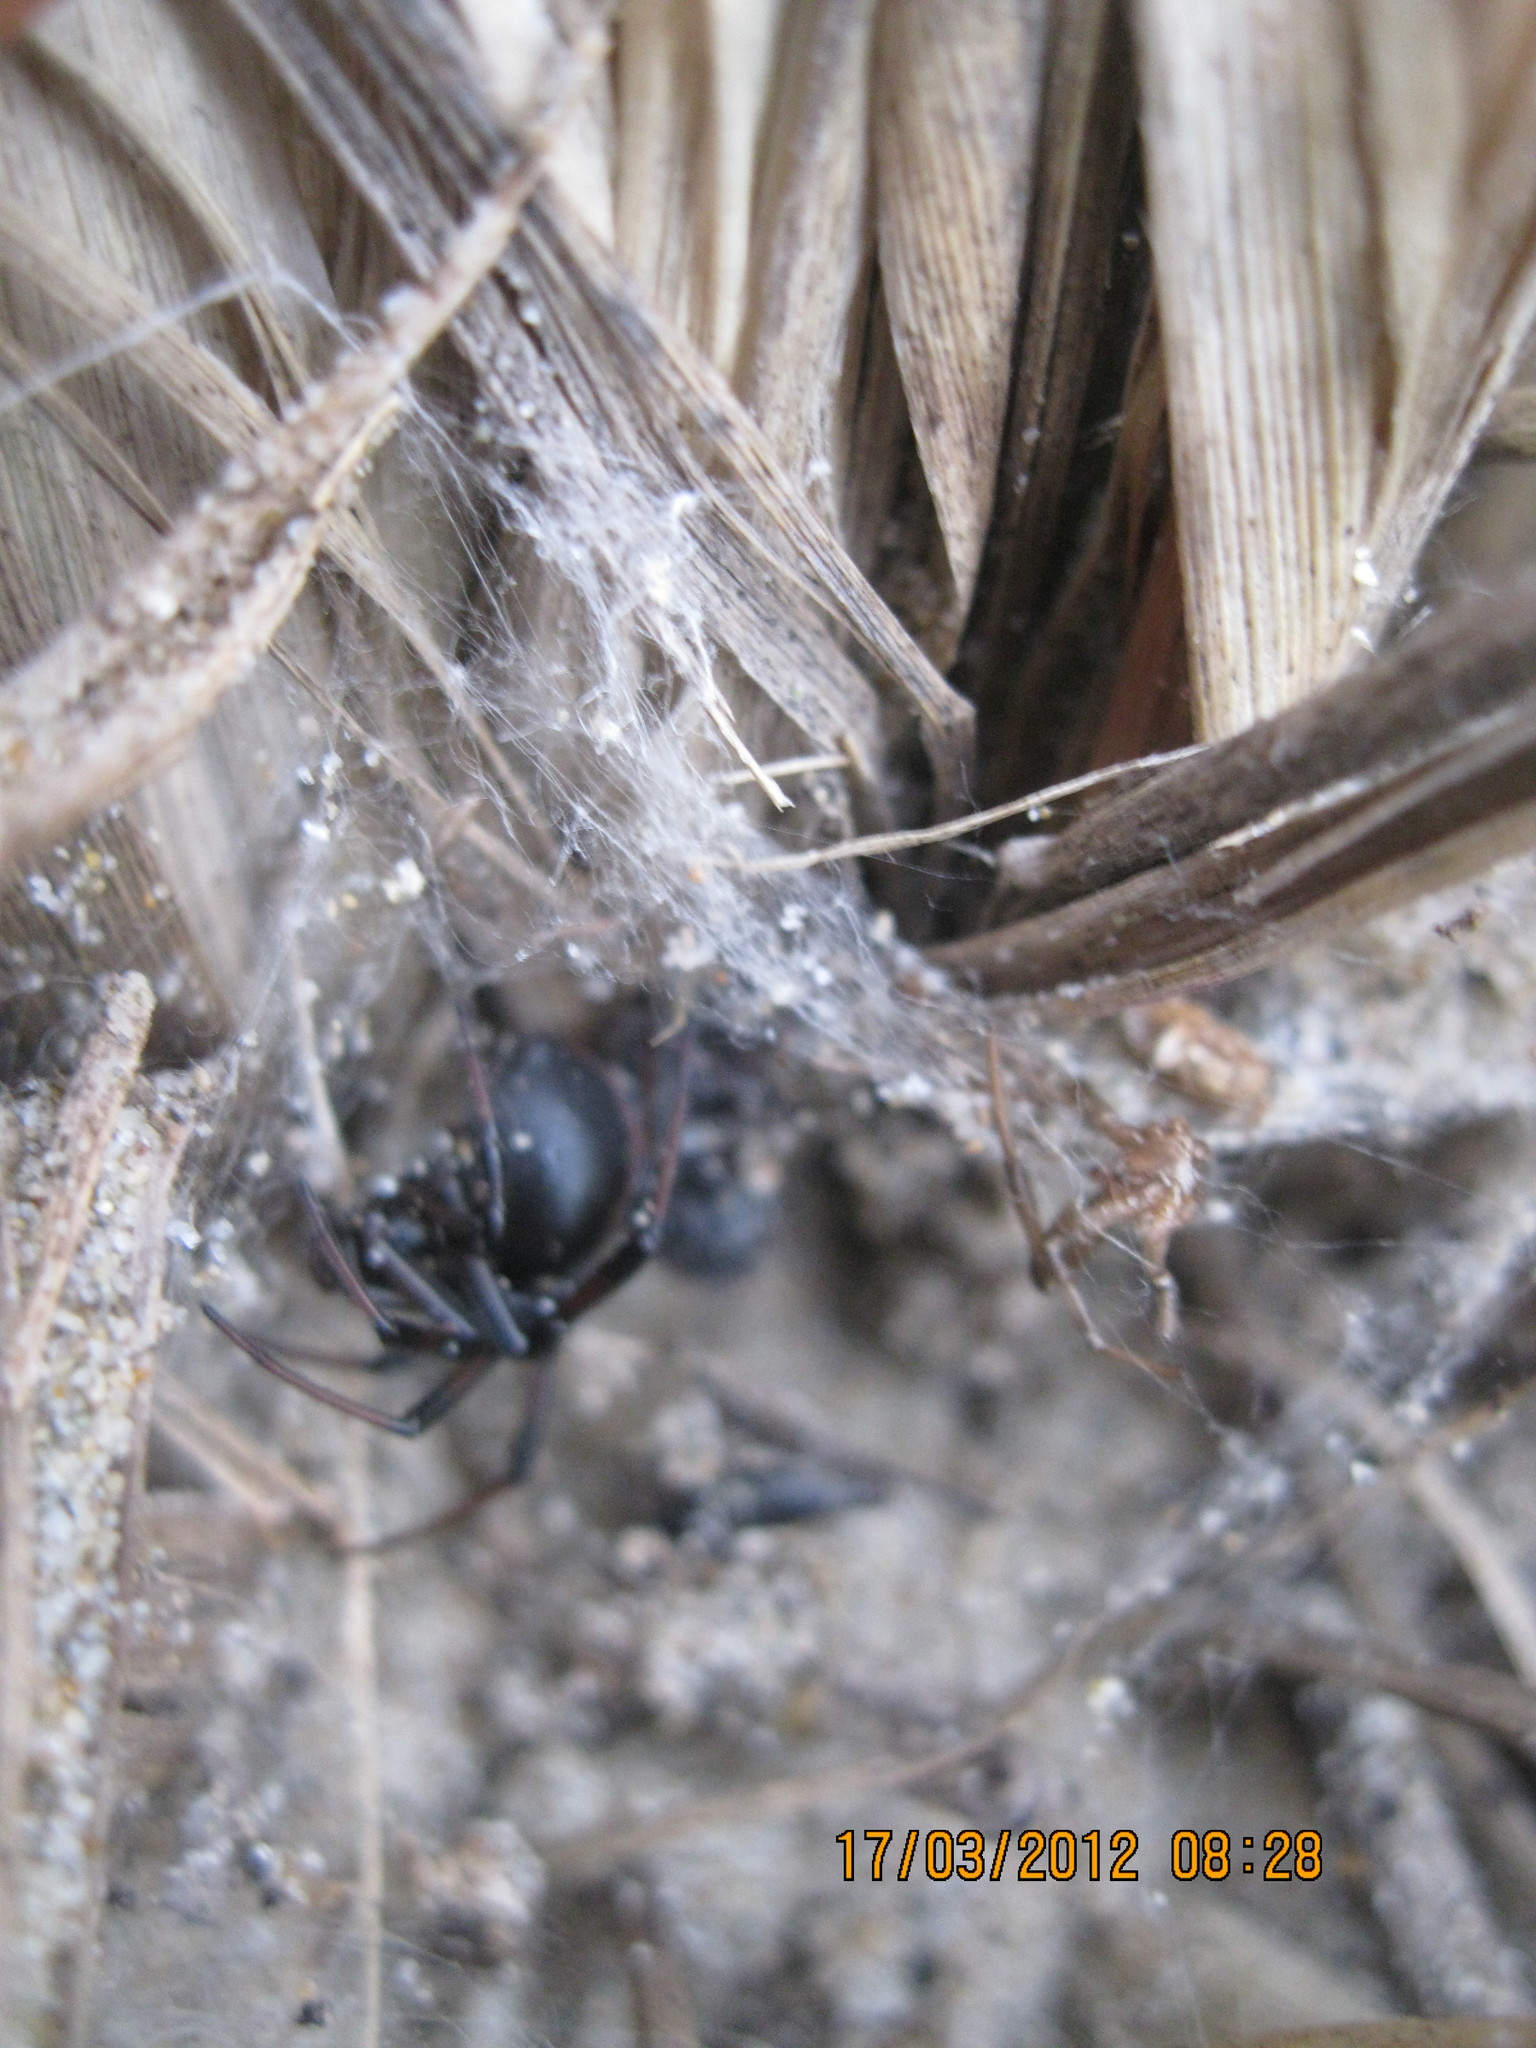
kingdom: Animalia
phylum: Arthropoda
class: Arachnida
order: Araneae
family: Theridiidae
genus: Latrodectus
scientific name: Latrodectus katipo
